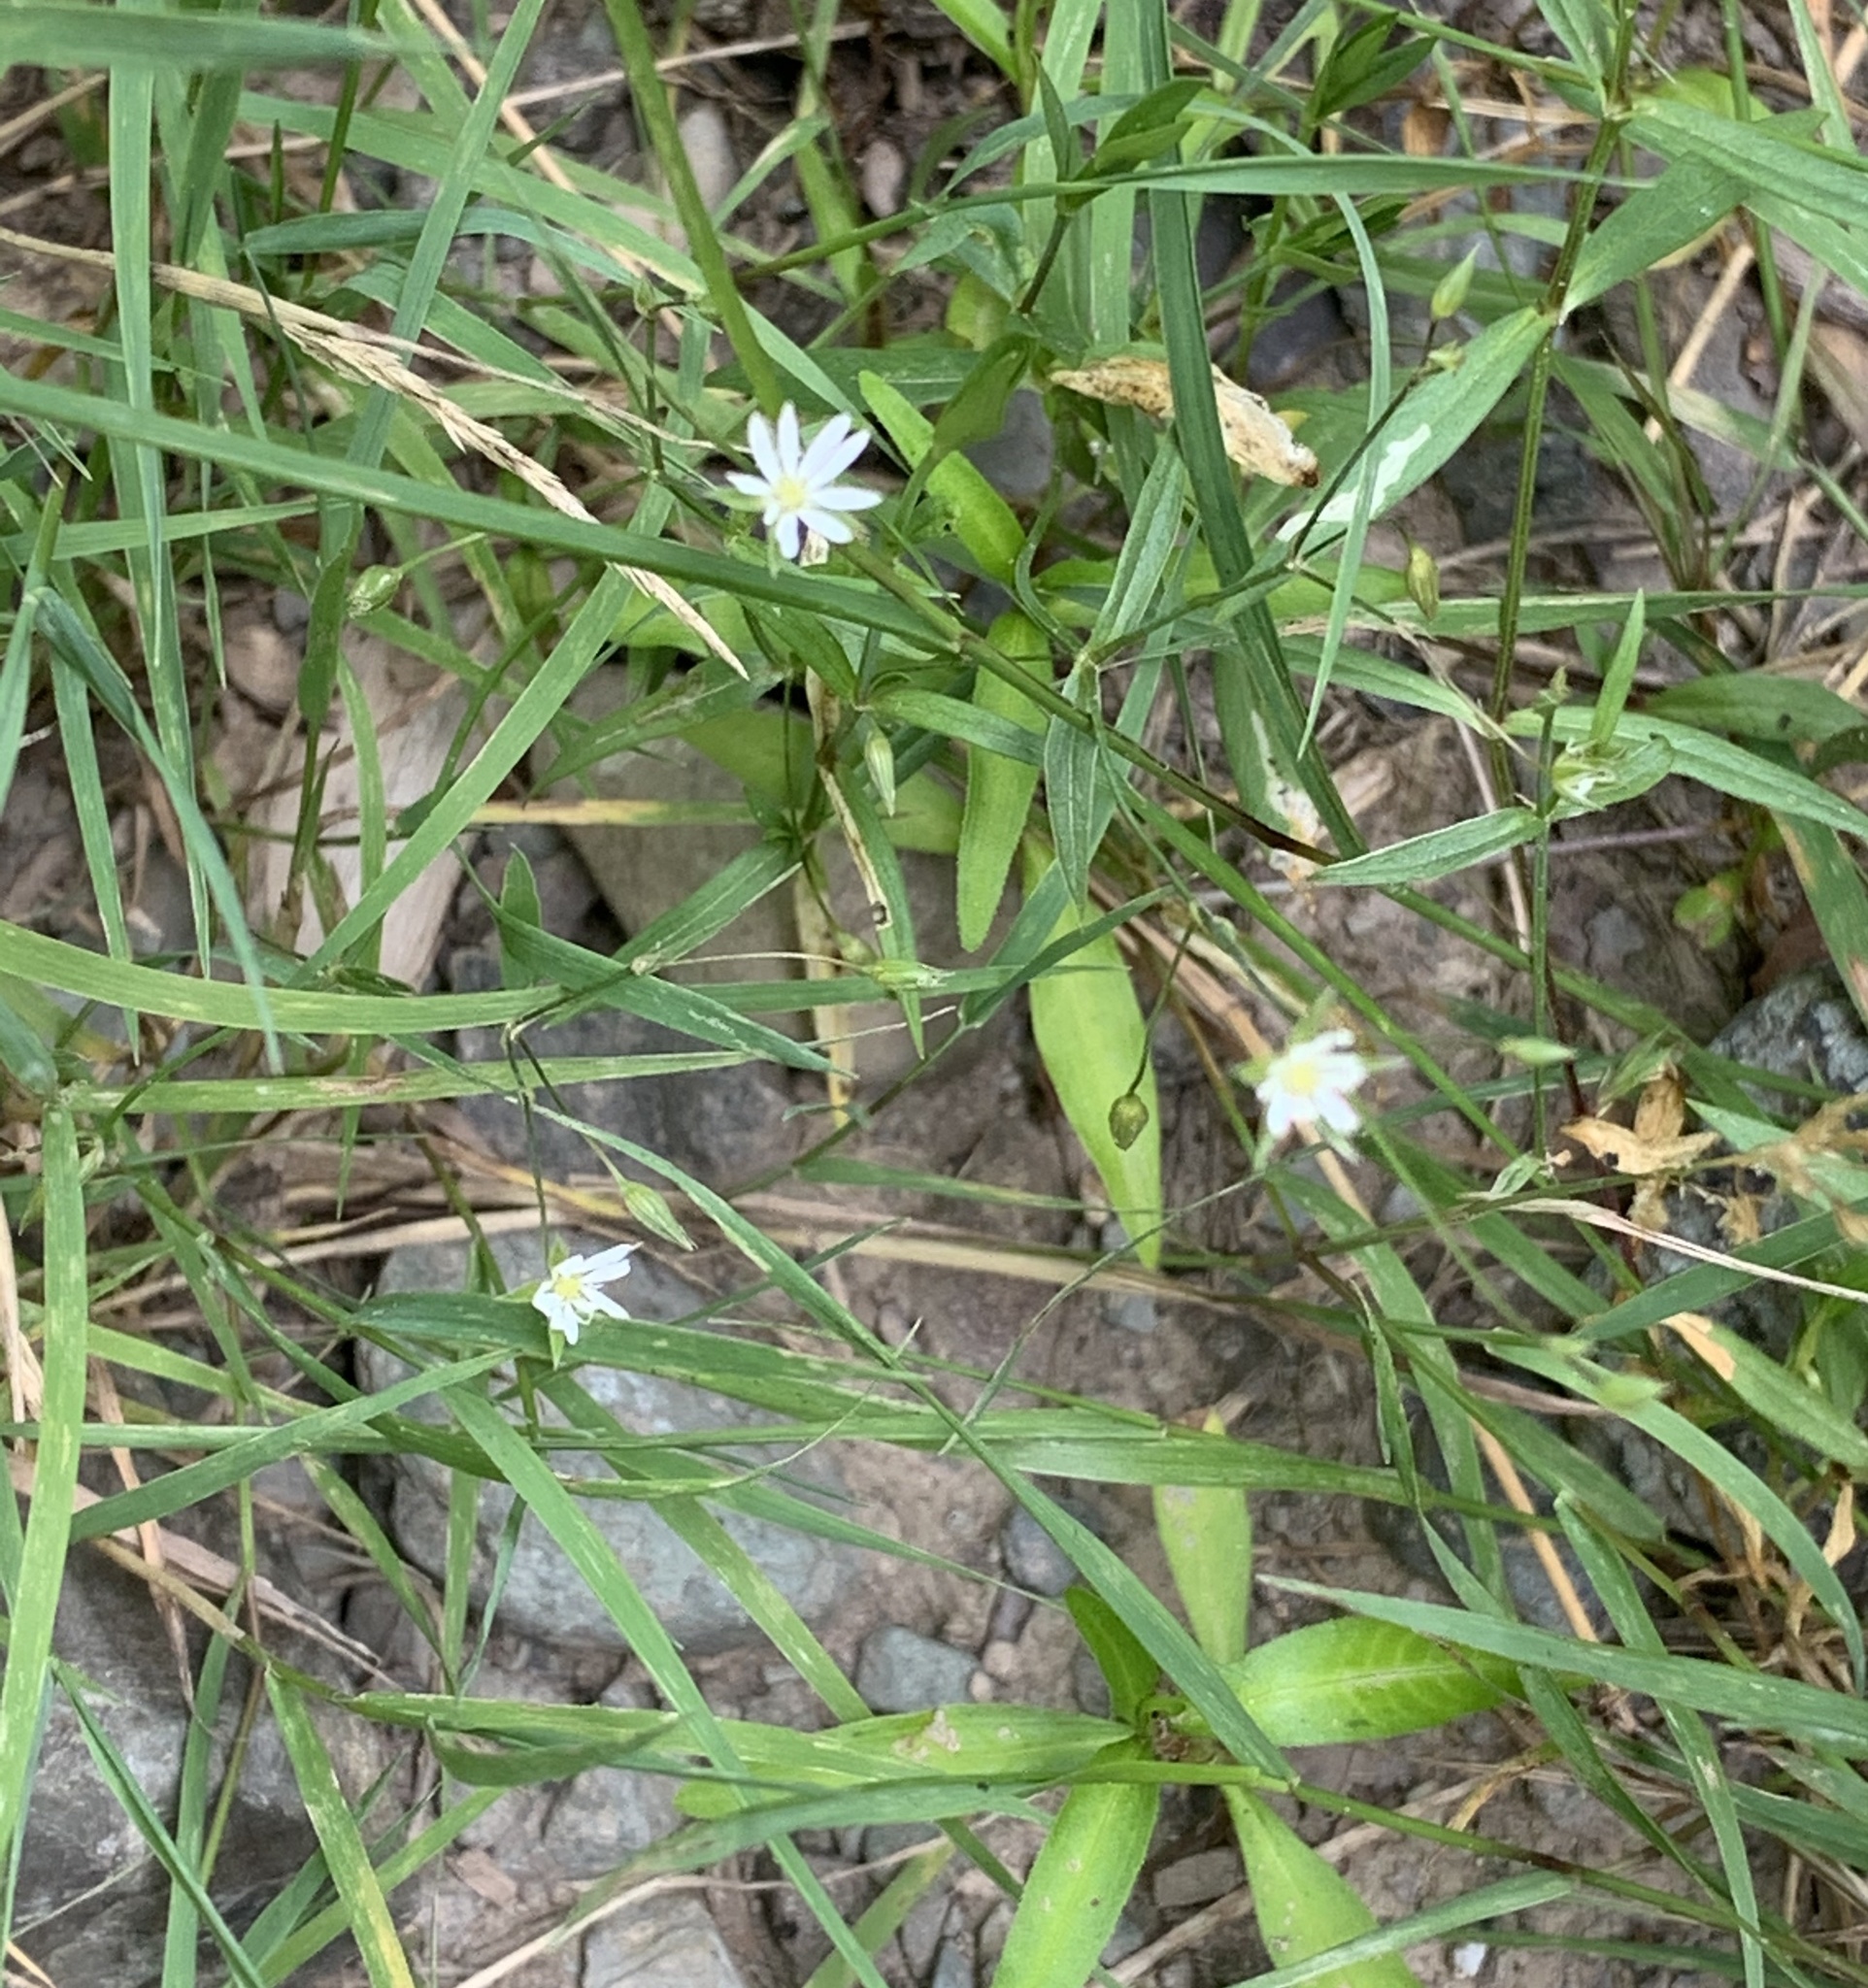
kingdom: Plantae
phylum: Tracheophyta
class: Magnoliopsida
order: Caryophyllales
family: Caryophyllaceae
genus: Stellaria
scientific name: Stellaria graminea
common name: Grass-like starwort
